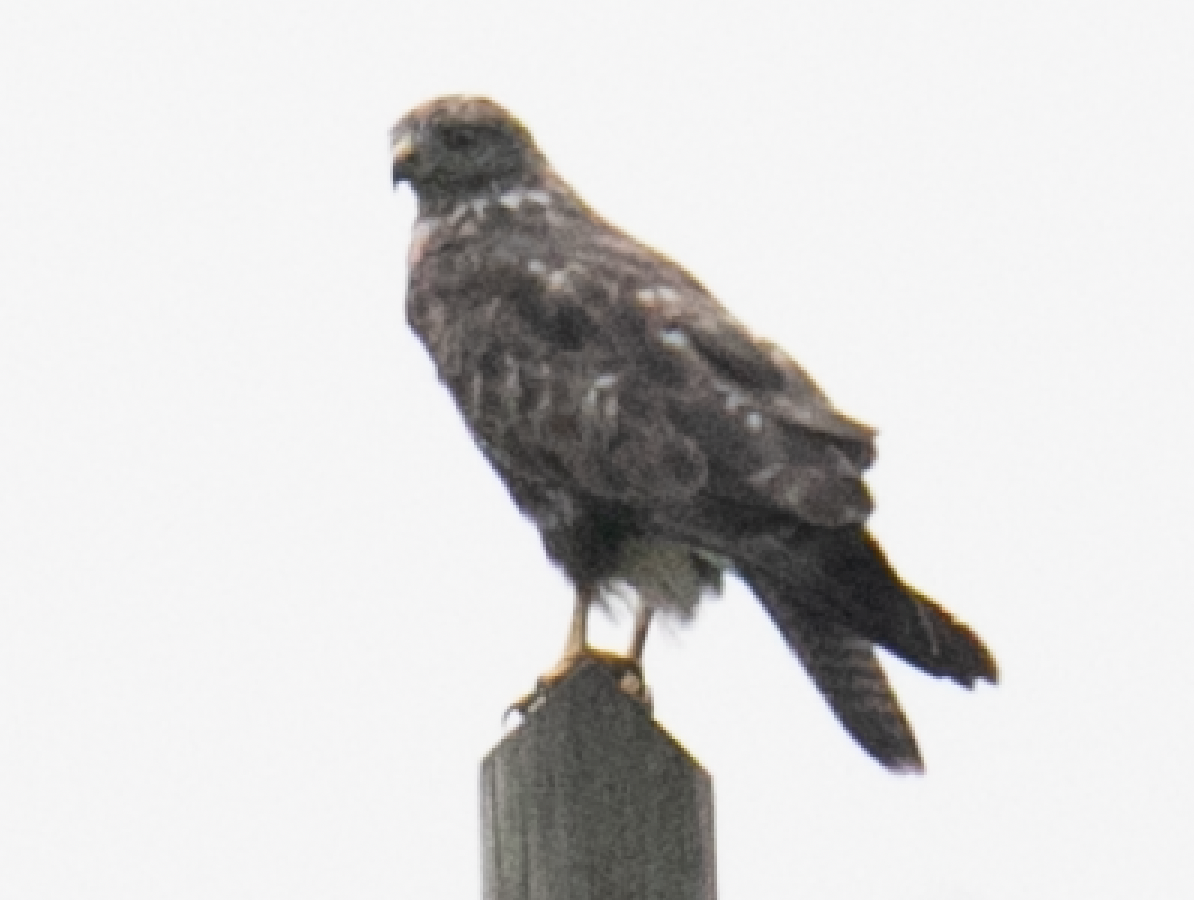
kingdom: Animalia
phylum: Chordata
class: Aves
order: Accipitriformes
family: Accipitridae
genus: Buteo
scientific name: Buteo buteo
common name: Common buzzard
